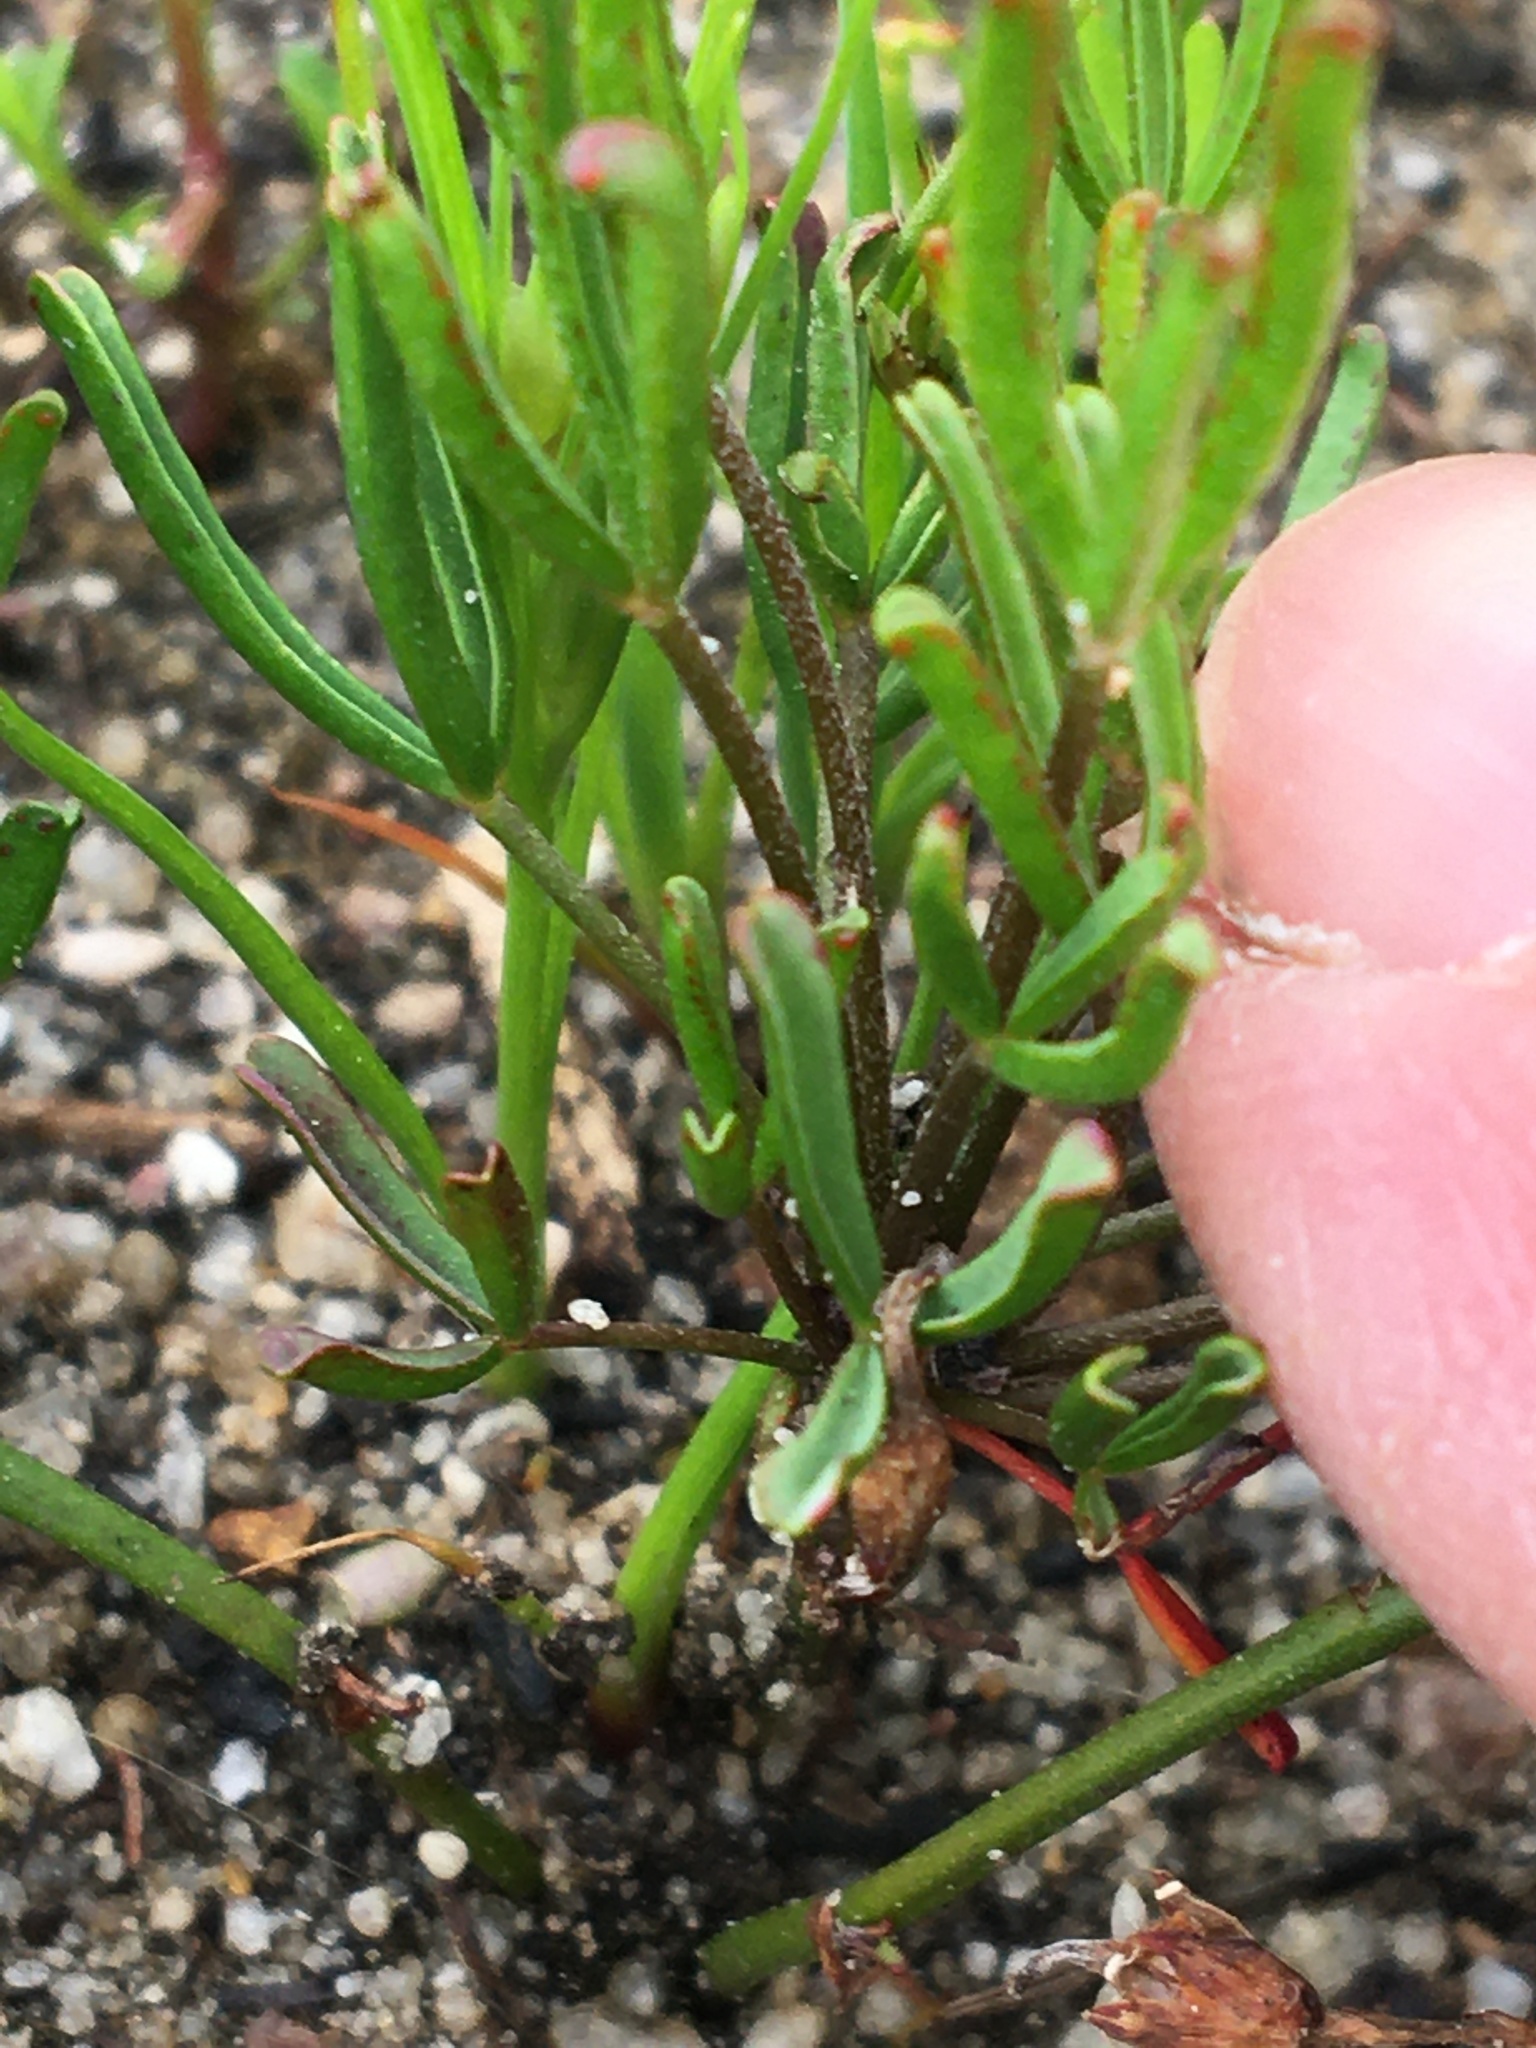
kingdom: Plantae
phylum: Tracheophyta
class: Magnoliopsida
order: Oxalidales
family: Oxalidaceae
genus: Oxalis
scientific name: Oxalis versicolor
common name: Peppermint rock oxalis
